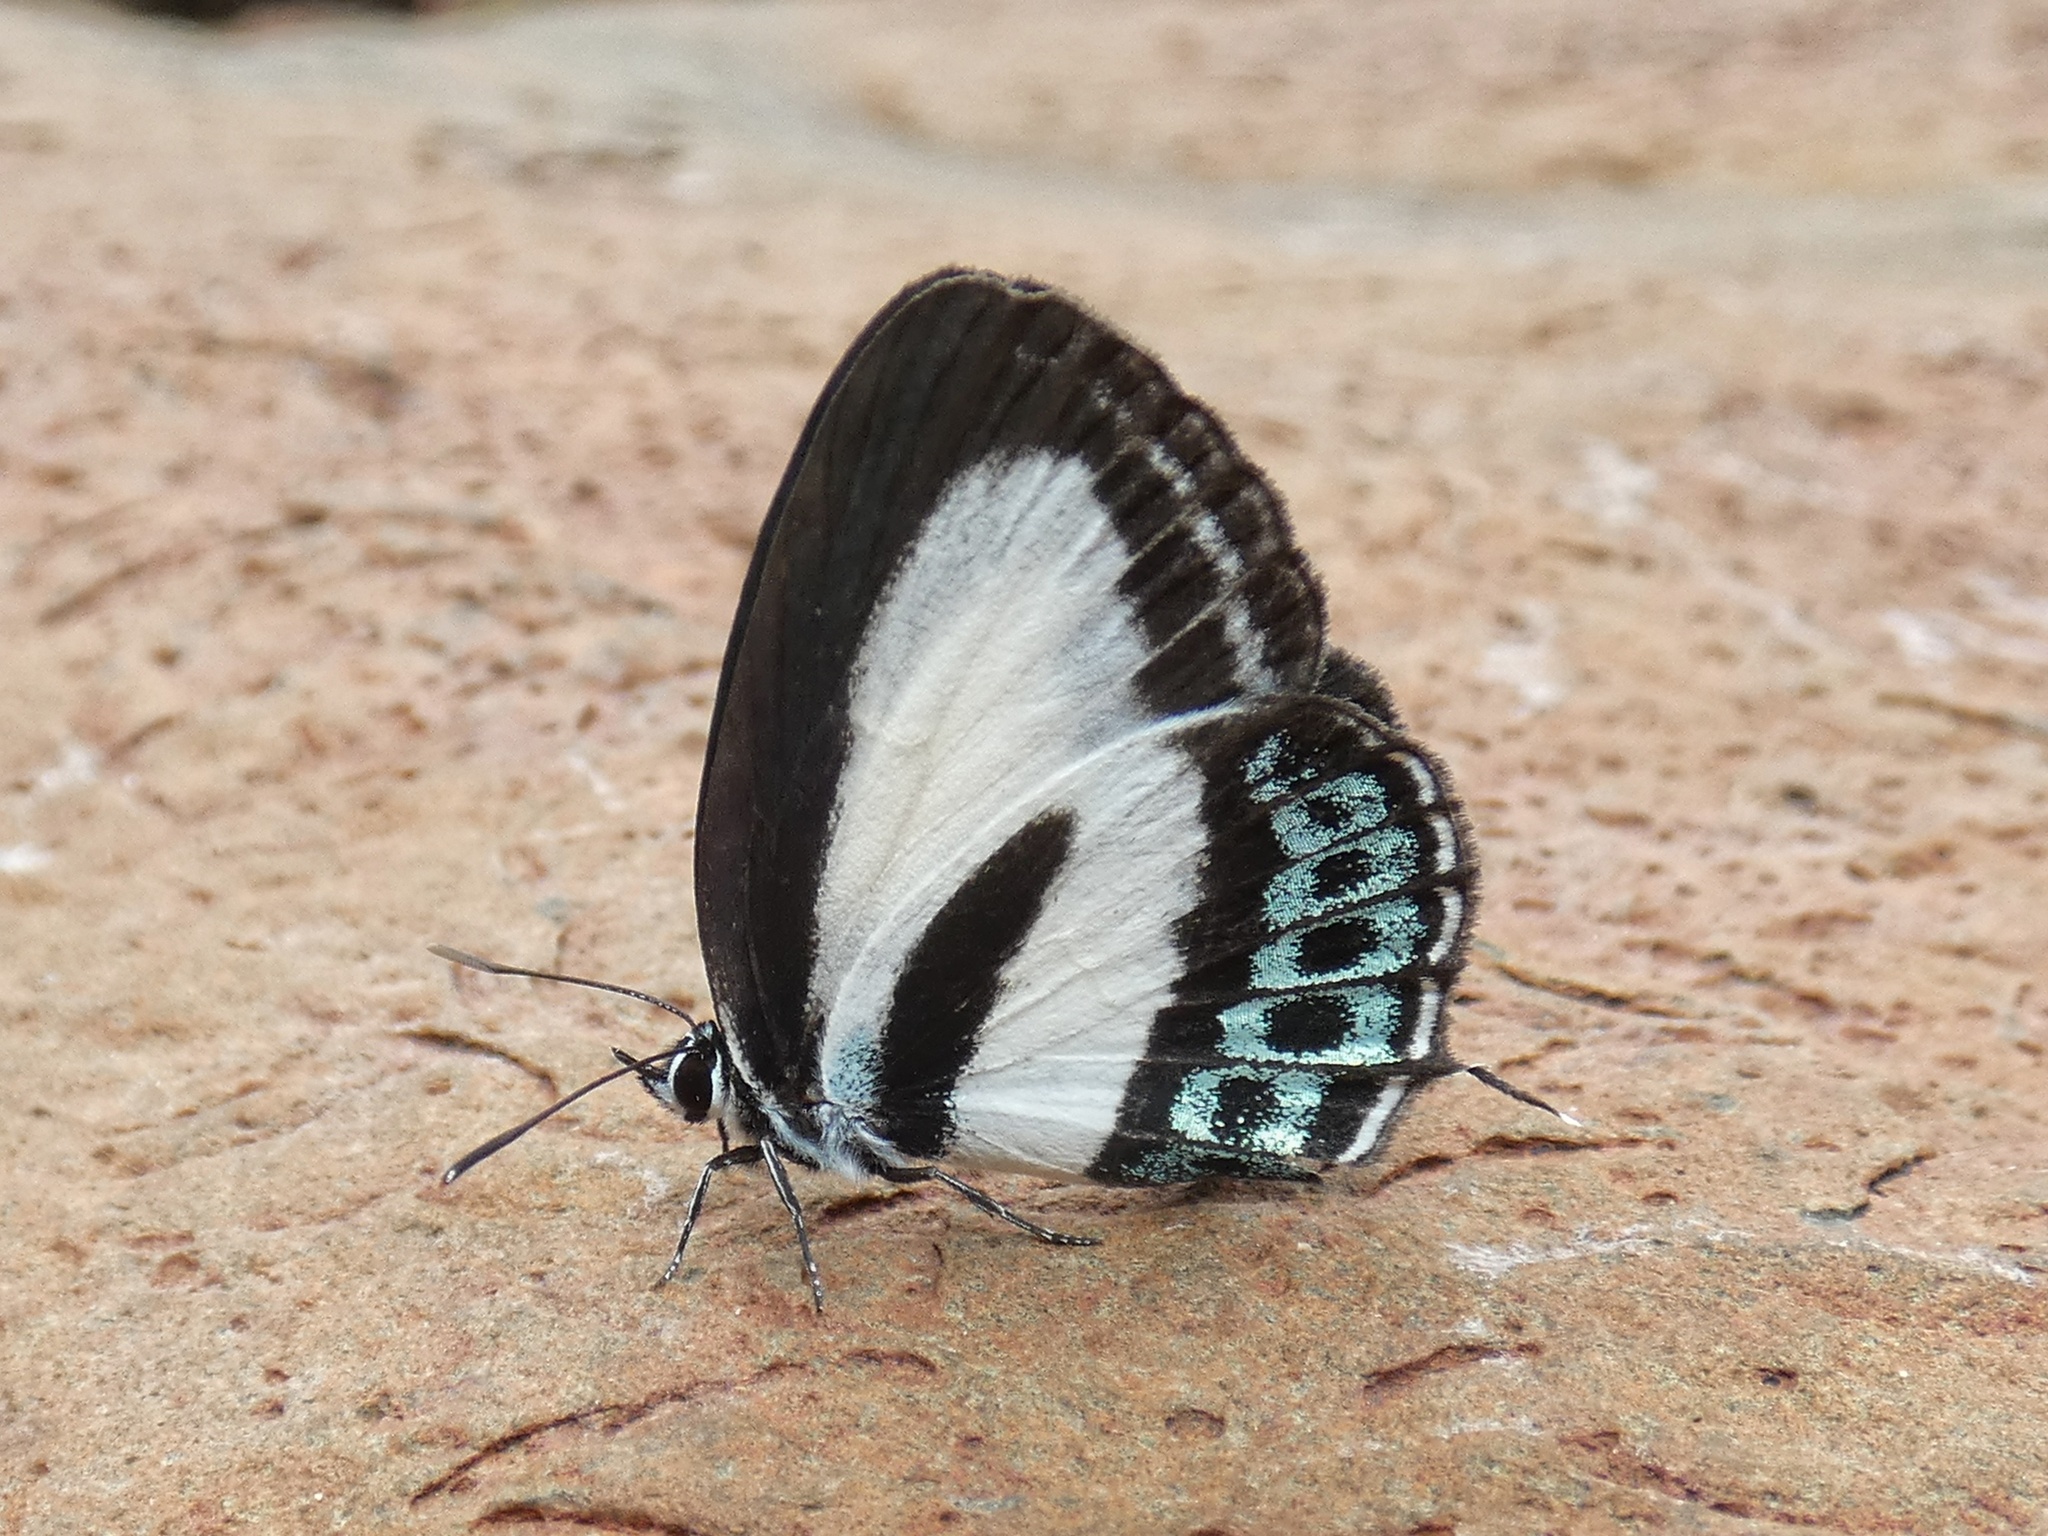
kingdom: Animalia
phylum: Arthropoda
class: Insecta
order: Lepidoptera
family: Lycaenidae
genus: Nacaduba
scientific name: Nacaduba cyanea
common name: Tailed green-banded line blue
